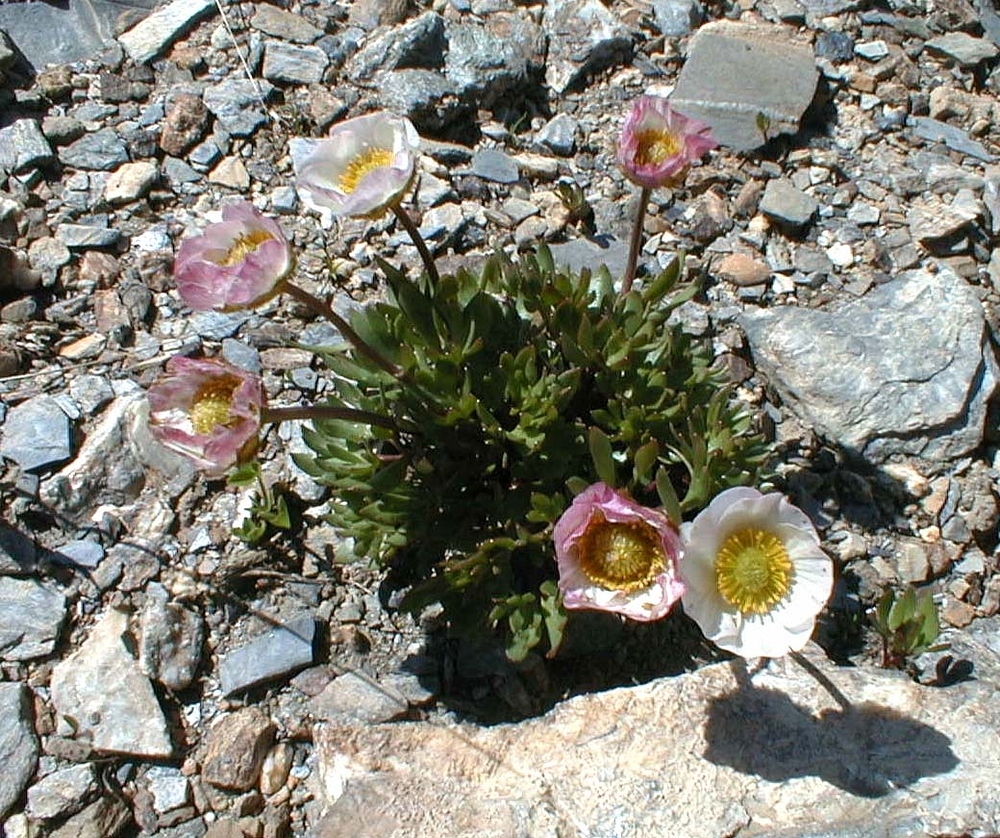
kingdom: Plantae
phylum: Tracheophyta
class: Magnoliopsida
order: Ranunculales
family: Ranunculaceae
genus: Ranunculus
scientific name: Ranunculus glacialis
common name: Glacier buttercup
